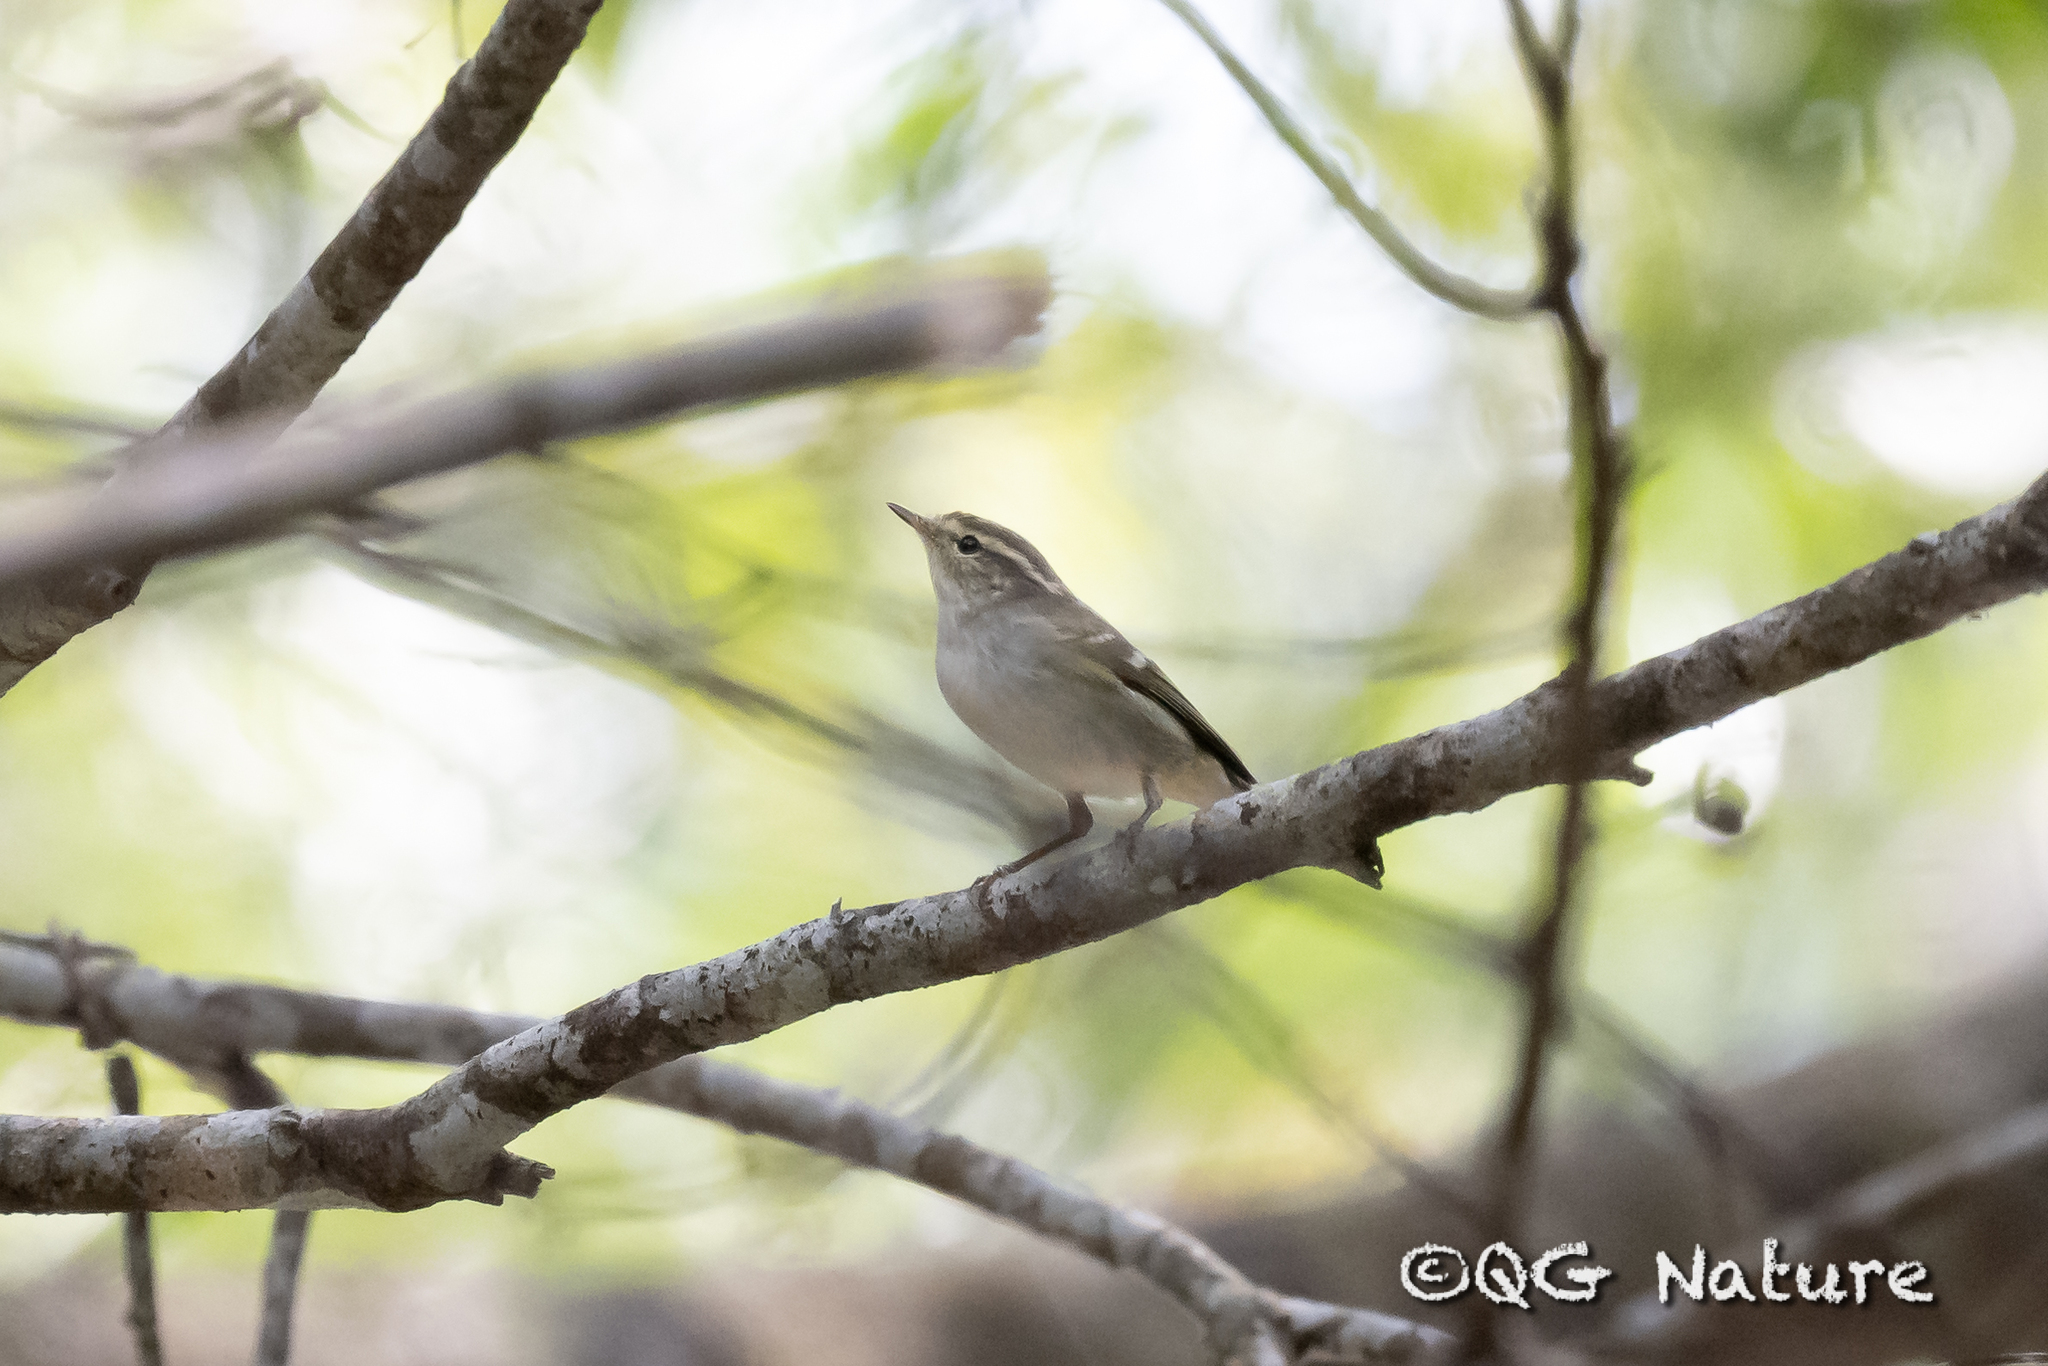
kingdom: Animalia
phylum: Chordata
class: Aves
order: Passeriformes
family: Phylloscopidae
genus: Phylloscopus
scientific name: Phylloscopus inornatus
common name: Yellow-browed warbler
